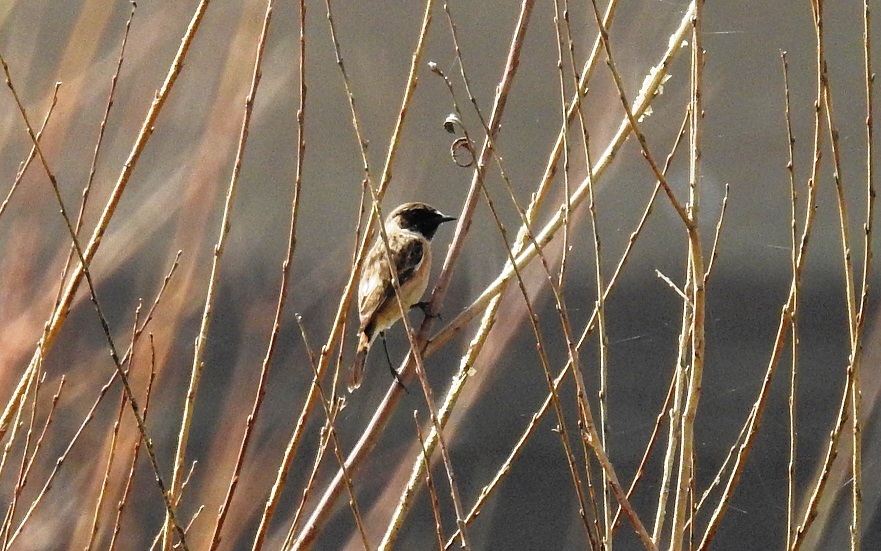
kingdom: Animalia
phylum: Chordata
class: Aves
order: Passeriformes
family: Muscicapidae
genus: Saxicola
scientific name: Saxicola rubicola
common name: European stonechat
